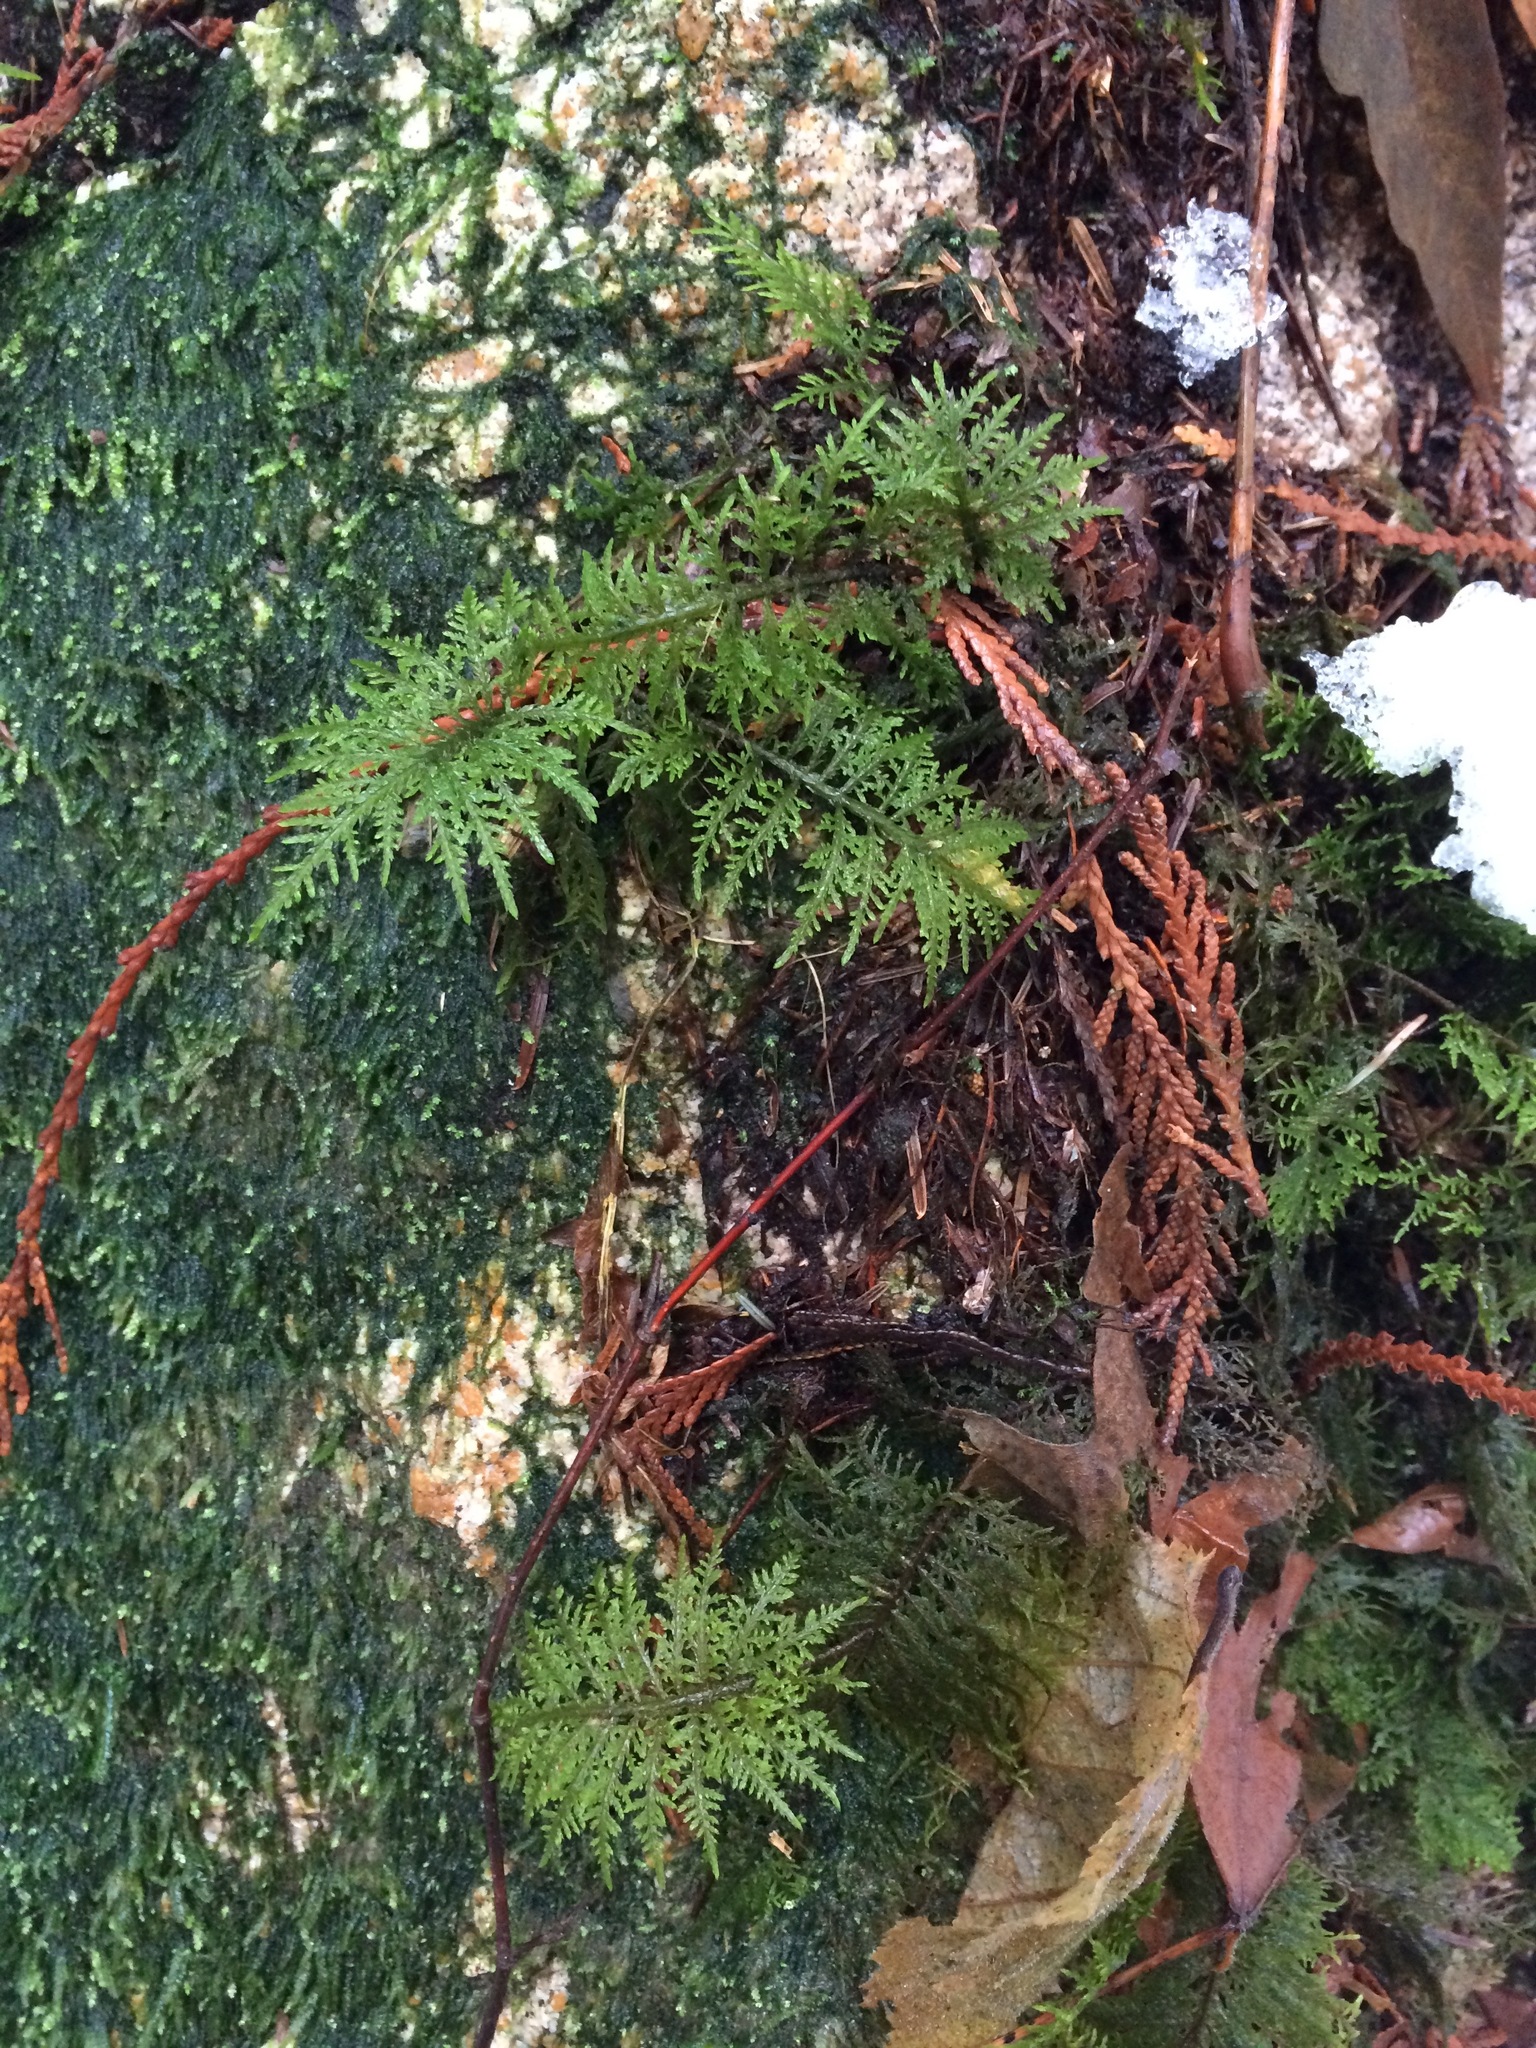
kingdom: Plantae
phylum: Bryophyta
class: Bryopsida
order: Hypnales
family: Hylocomiaceae
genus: Hylocomium
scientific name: Hylocomium splendens
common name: Stairstep moss
